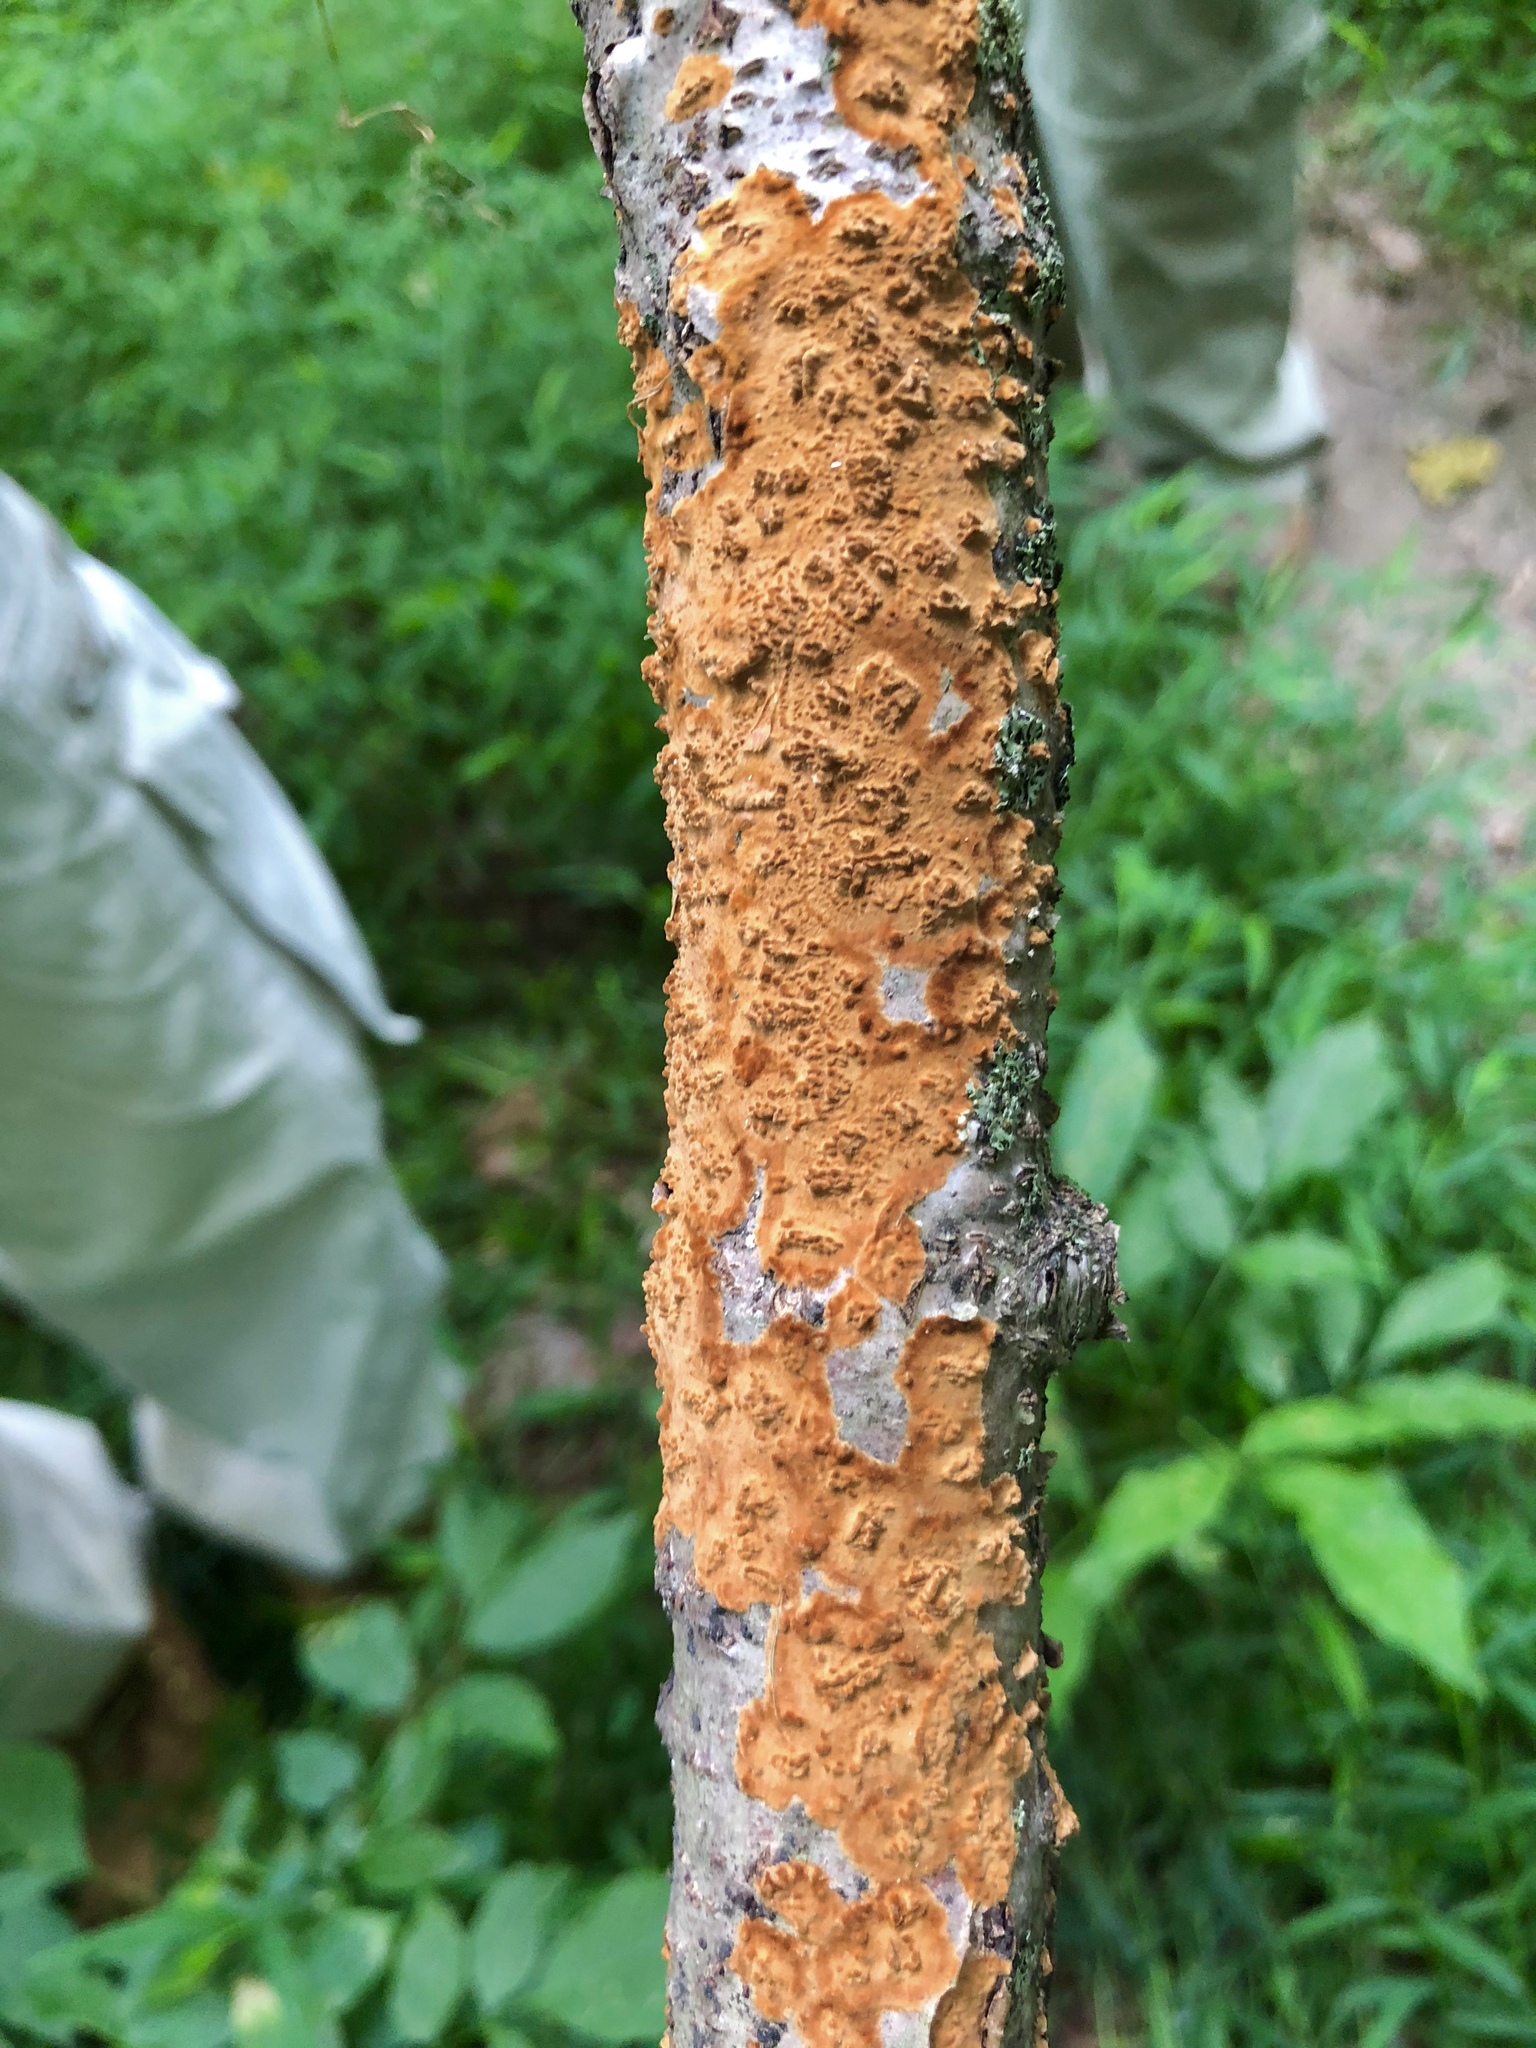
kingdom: Fungi
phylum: Basidiomycota
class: Agaricomycetes
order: Russulales
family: Stereaceae
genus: Stereum
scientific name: Stereum complicatum
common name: Crowded parchment
